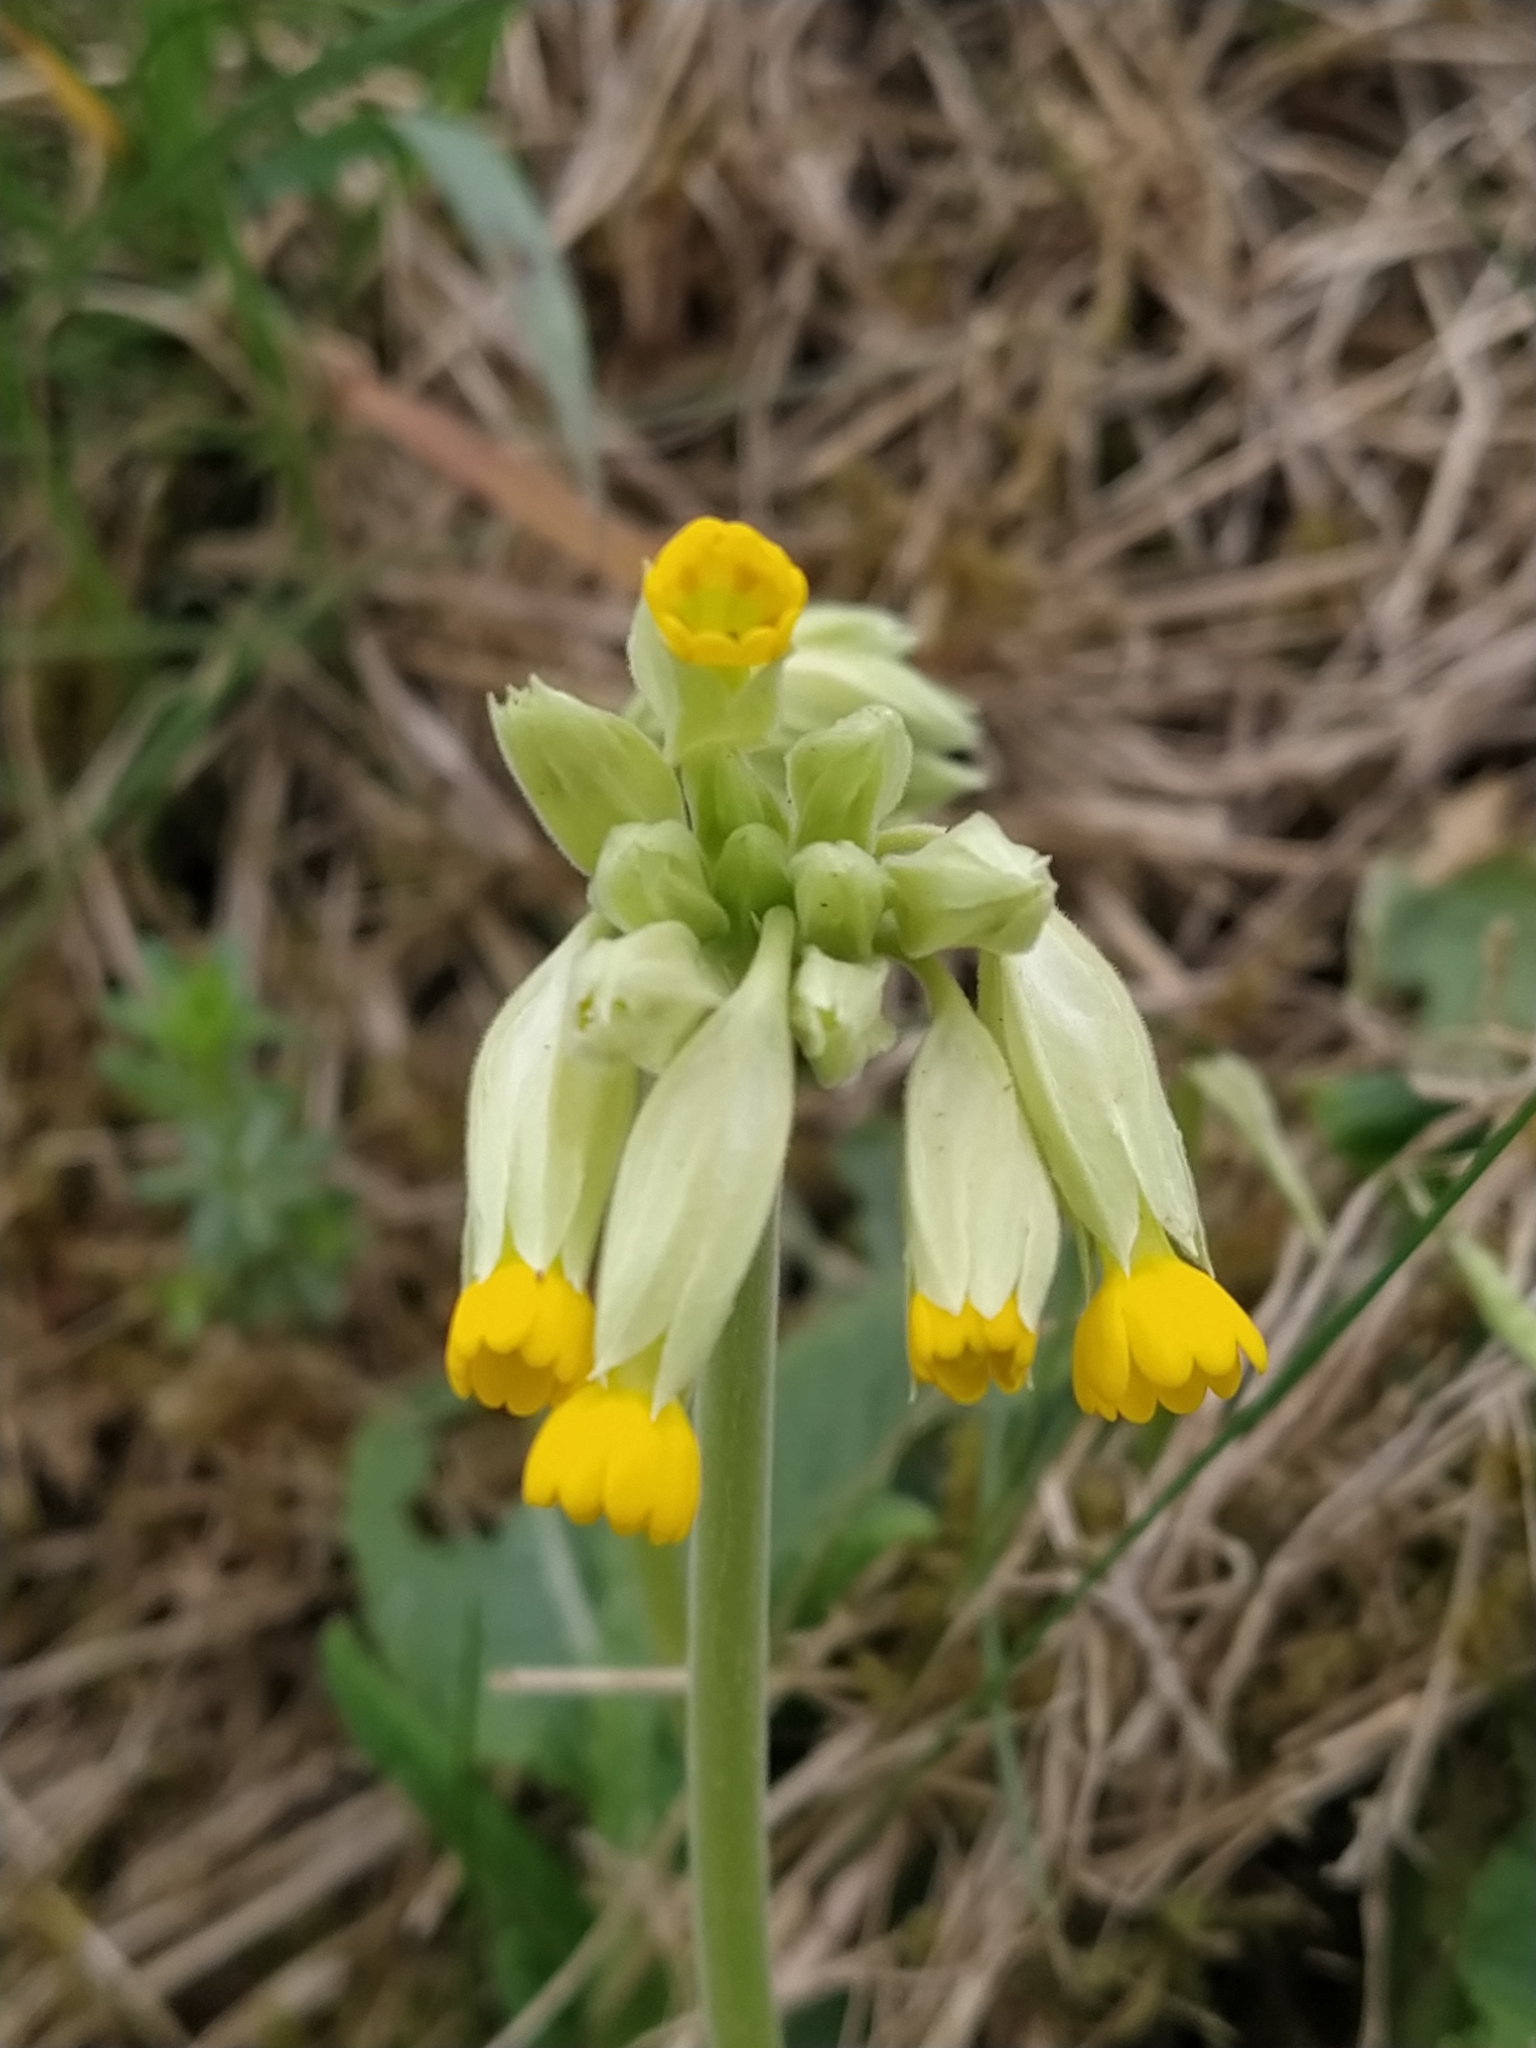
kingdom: Plantae
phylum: Tracheophyta
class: Magnoliopsida
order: Ericales
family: Primulaceae
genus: Primula
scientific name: Primula veris
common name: Cowslip
